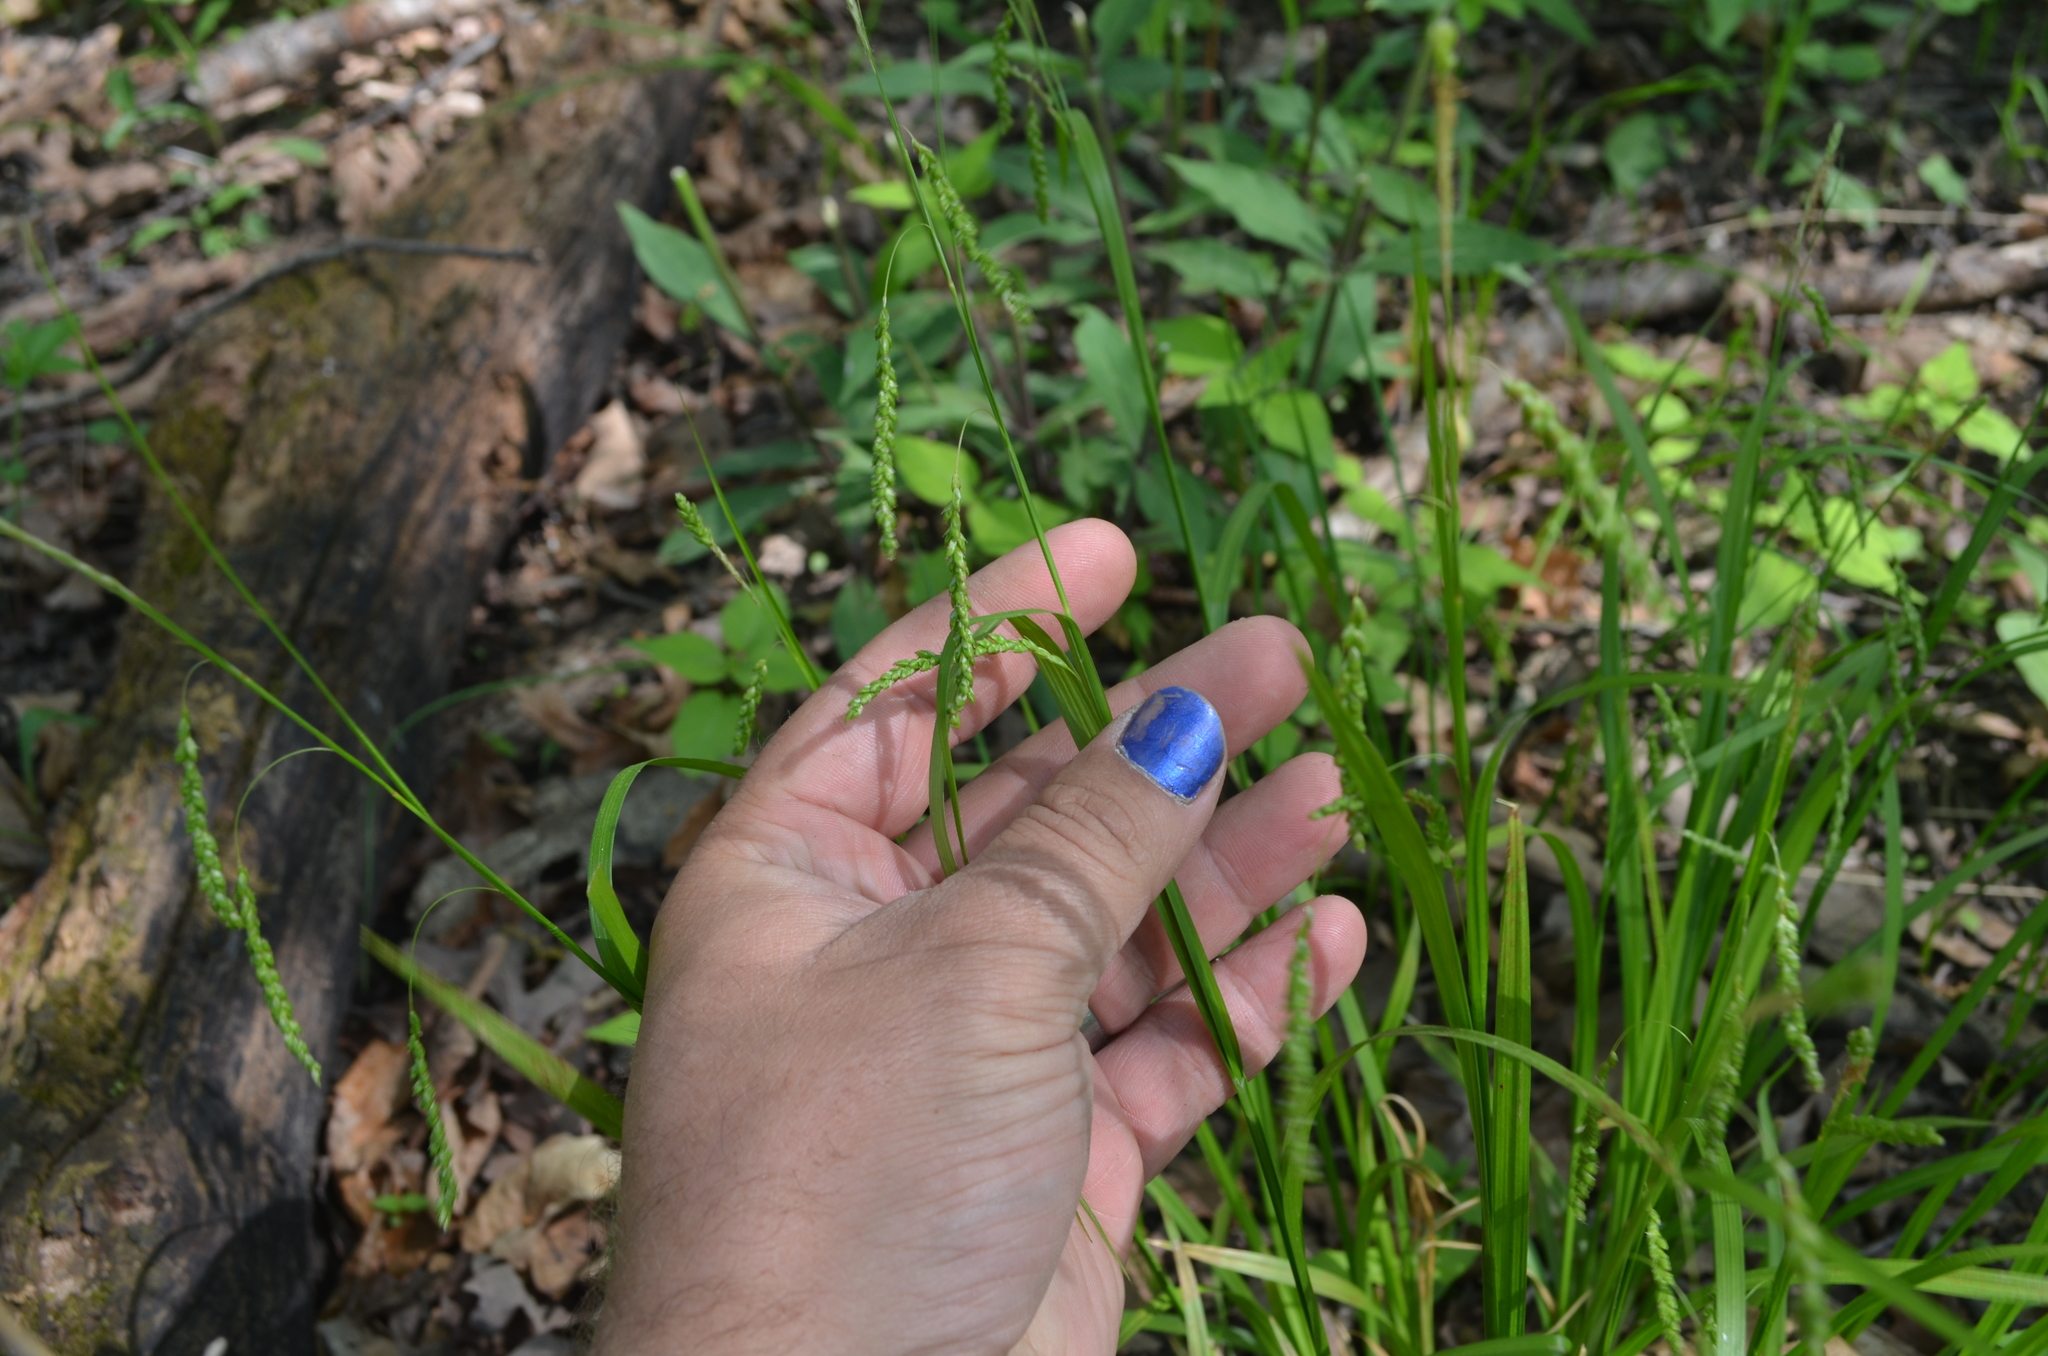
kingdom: Plantae
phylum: Tracheophyta
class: Liliopsida
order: Poales
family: Cyperaceae
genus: Carex
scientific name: Carex gracillima
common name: Graceful sedge
